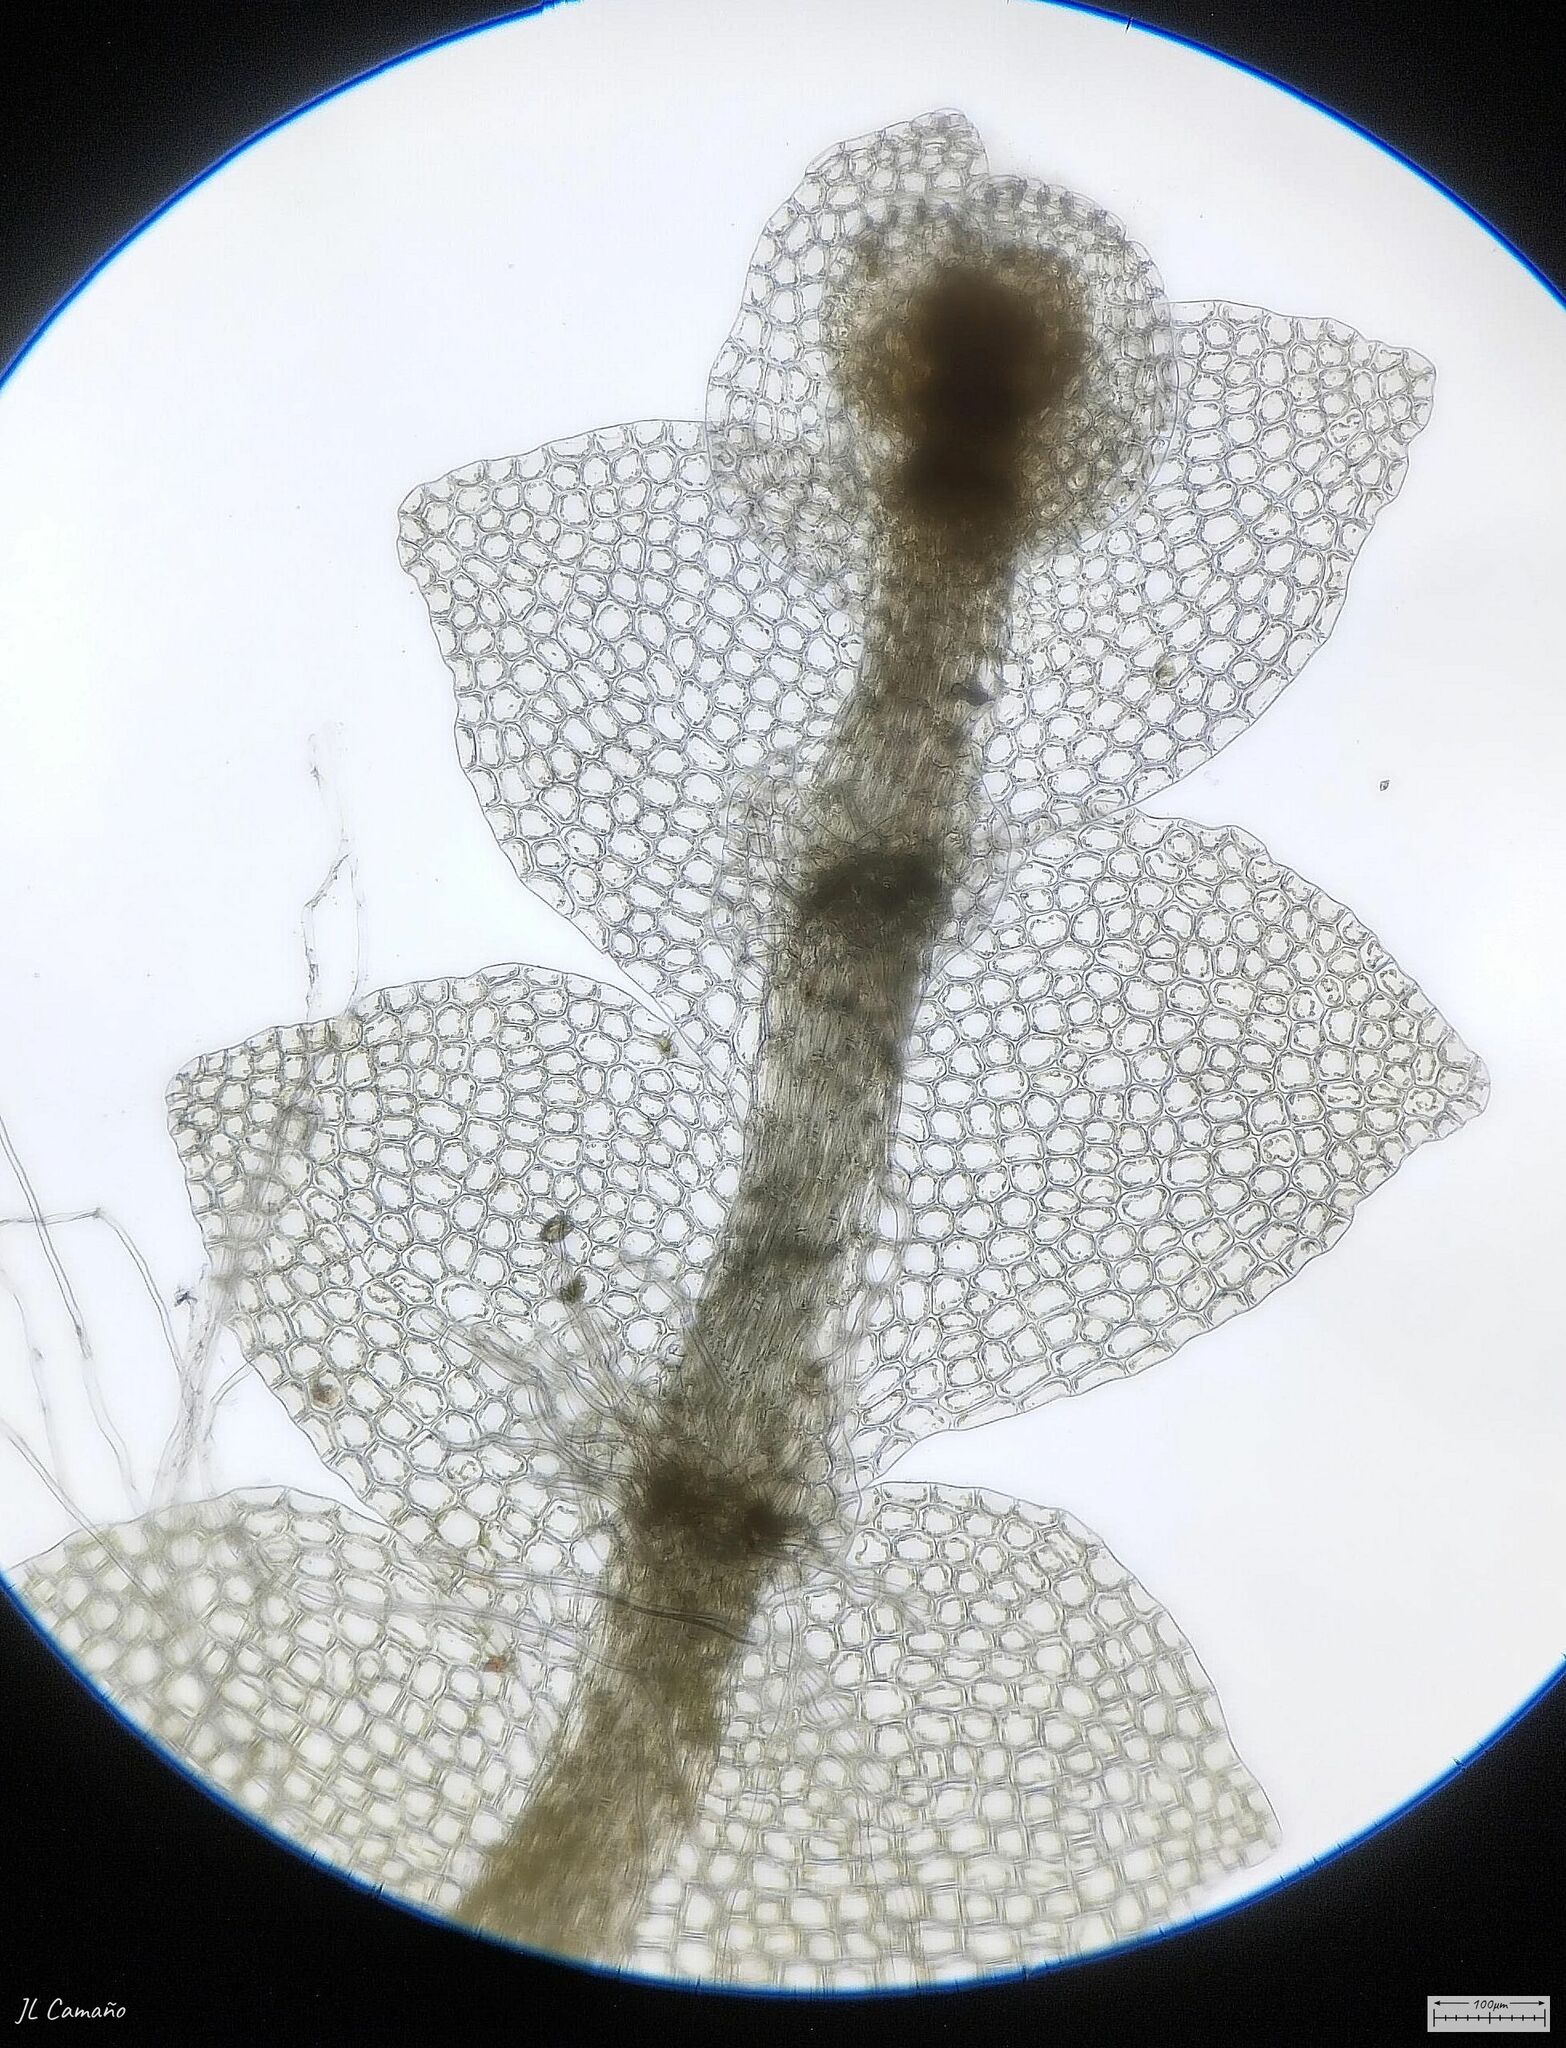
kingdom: Plantae
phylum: Marchantiophyta
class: Jungermanniopsida
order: Jungermanniales
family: Calypogeiaceae
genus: Calypogeia
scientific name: Calypogeia suecica
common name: Swedish pouchwort
